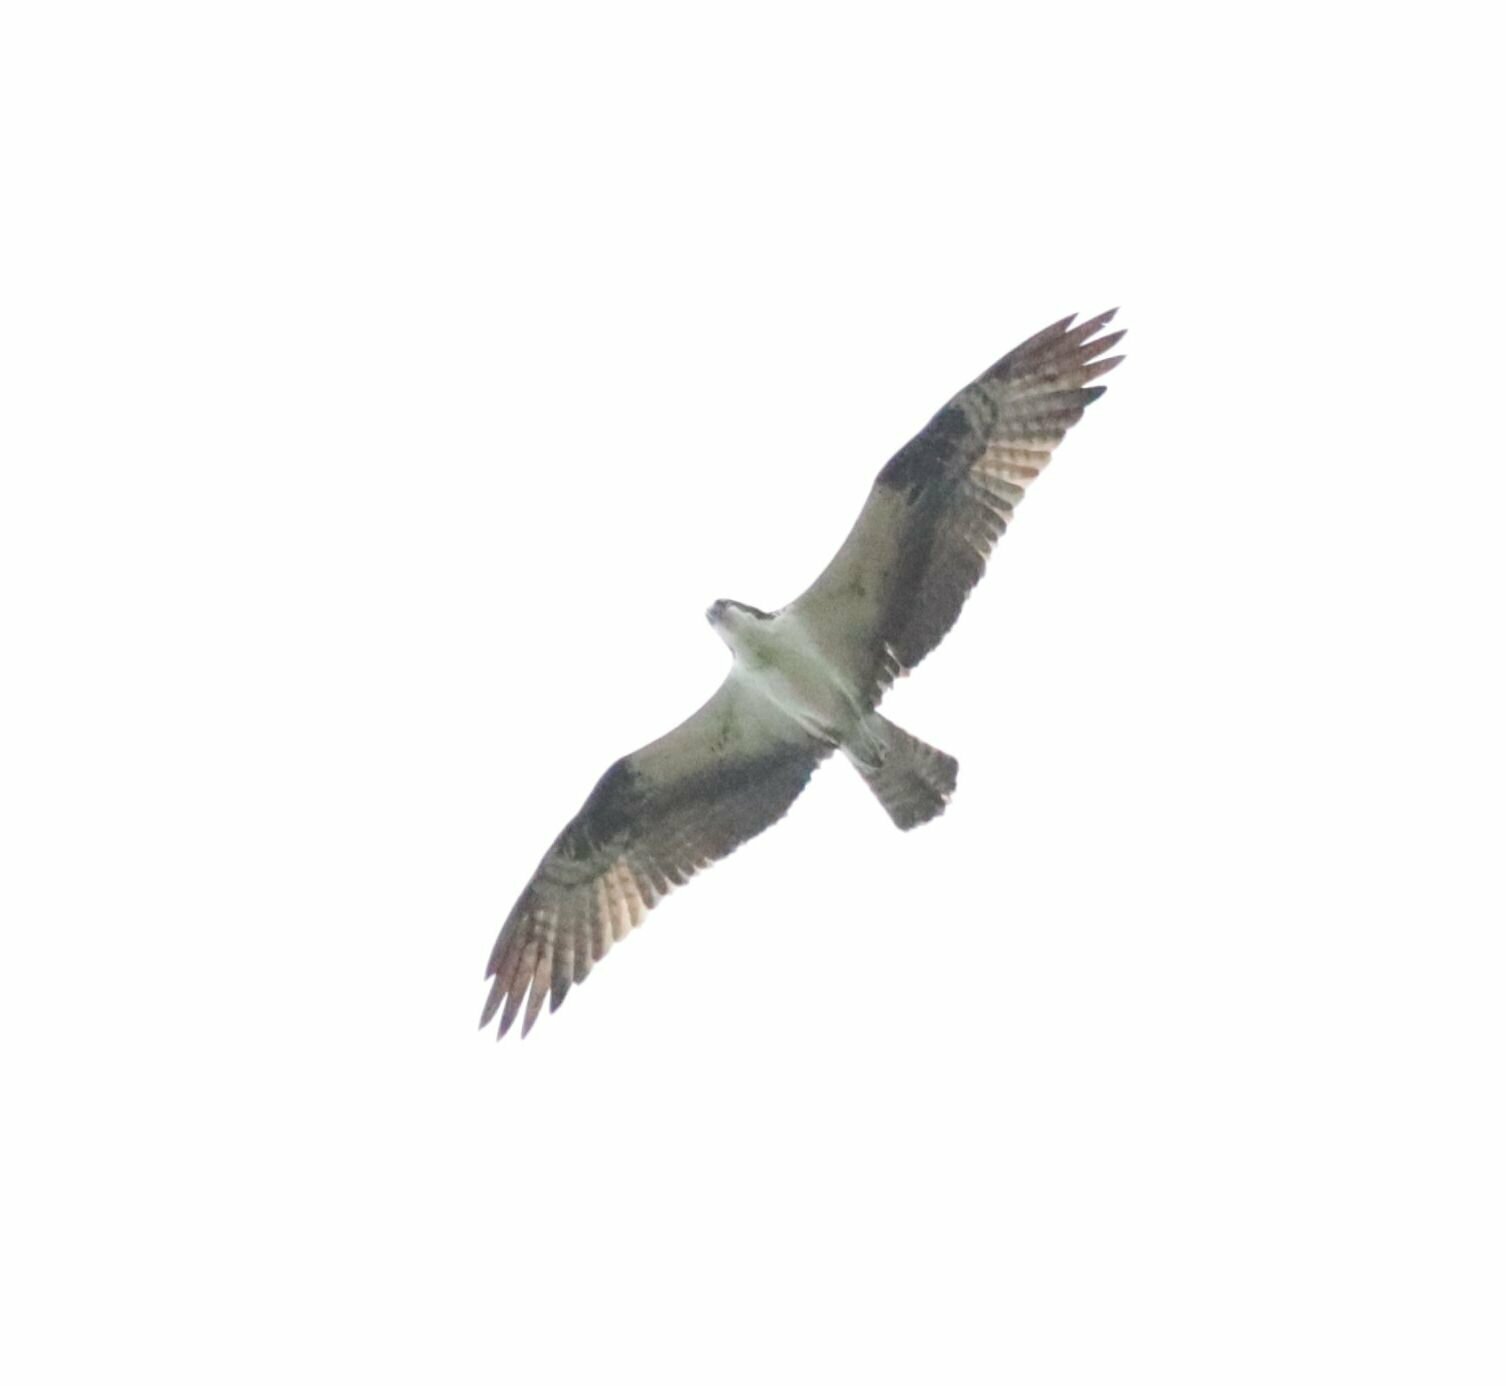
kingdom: Animalia
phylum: Chordata
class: Aves
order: Accipitriformes
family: Pandionidae
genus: Pandion
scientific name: Pandion haliaetus
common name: Osprey
